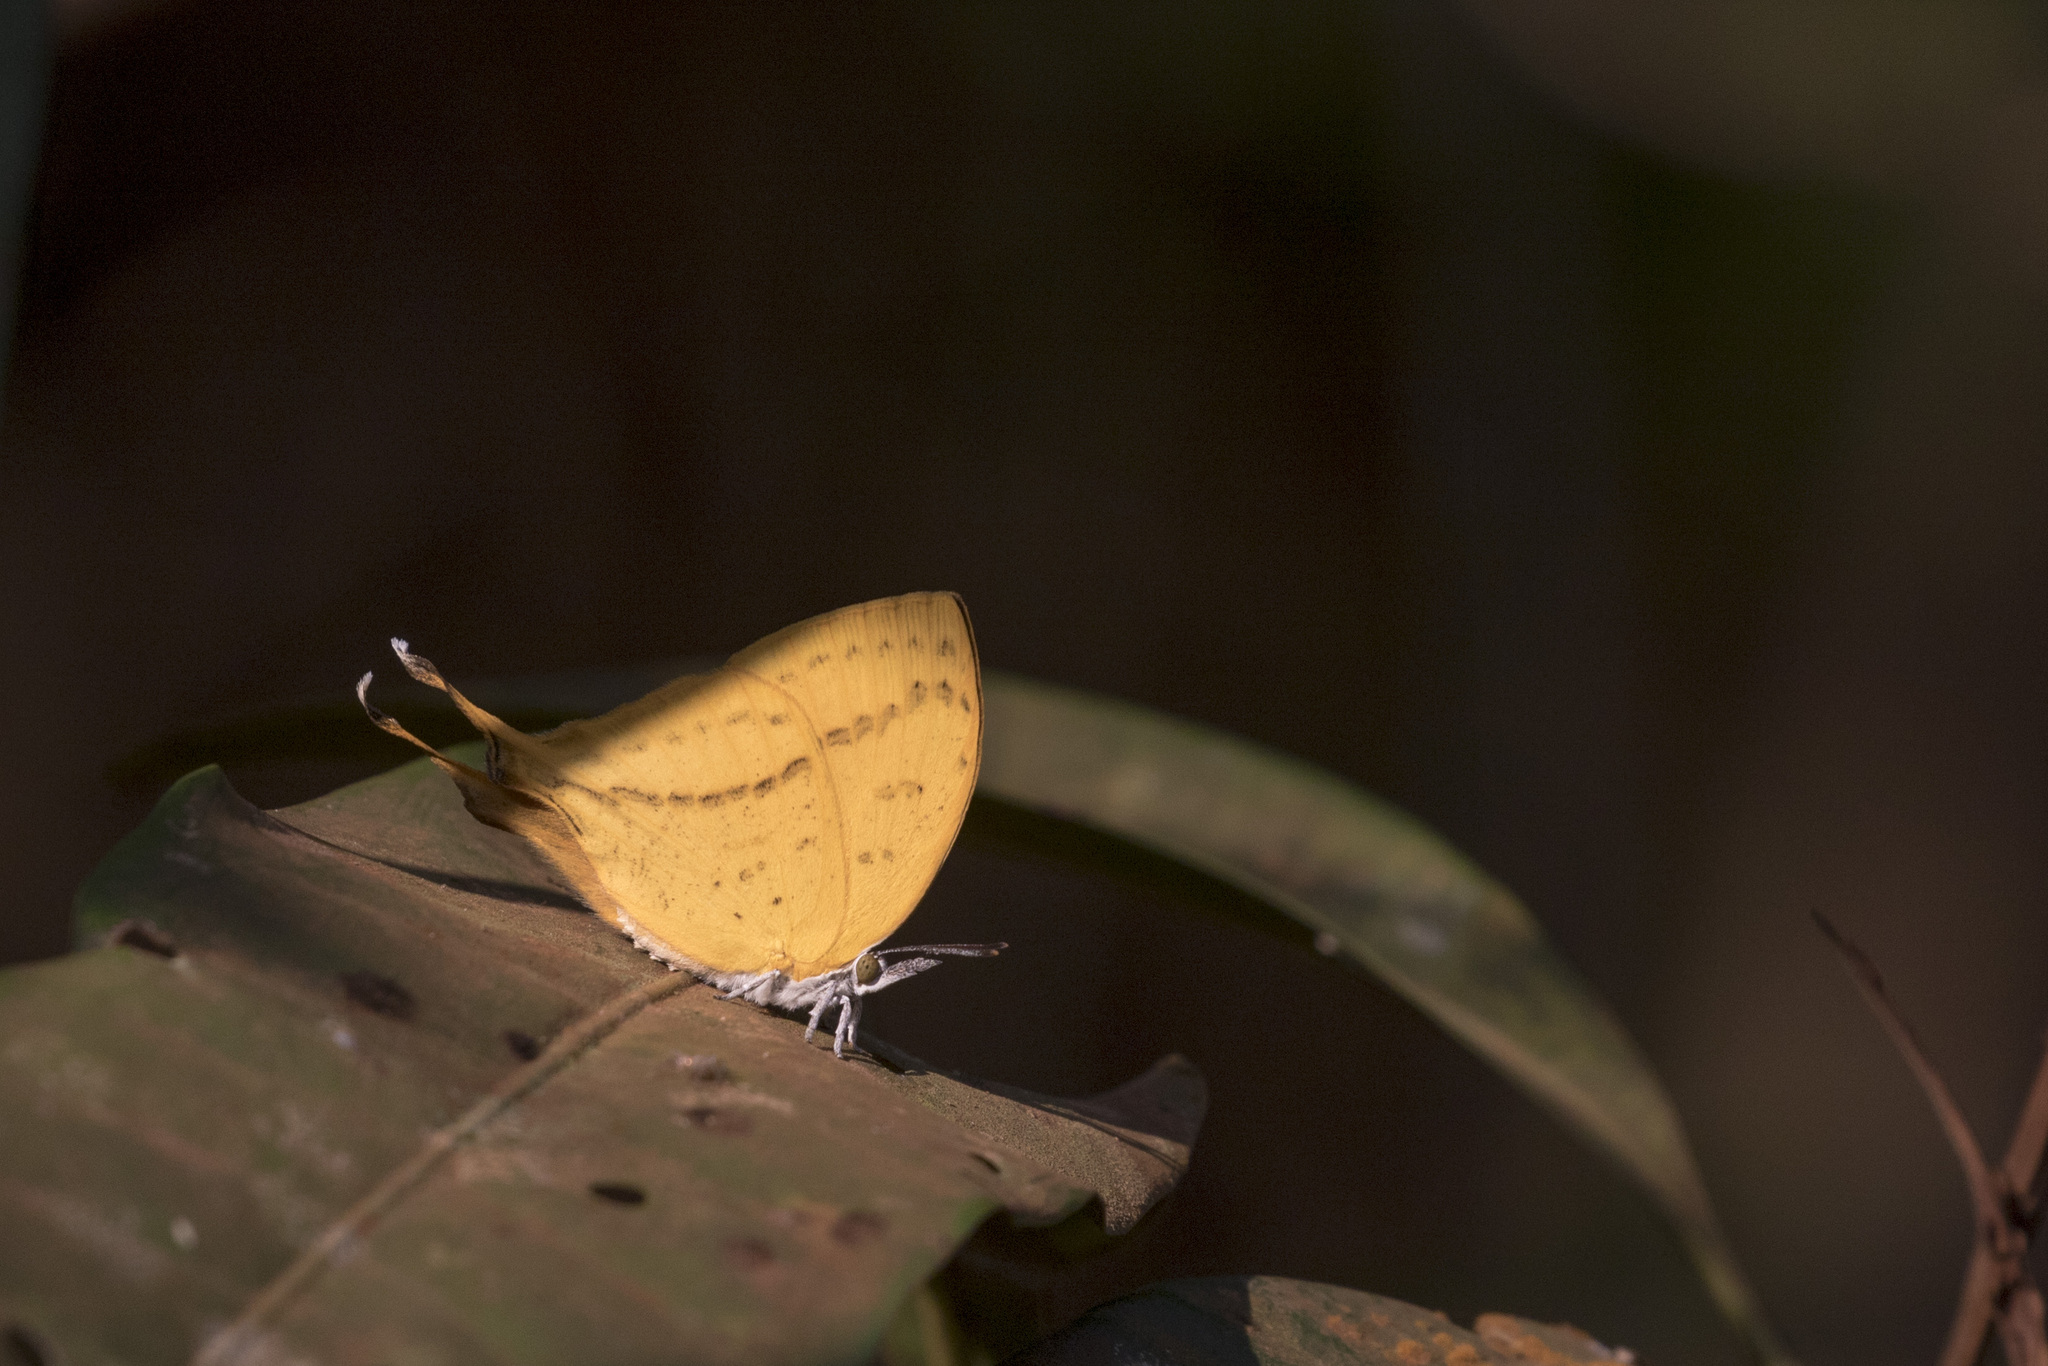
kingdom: Animalia
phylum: Arthropoda
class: Insecta
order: Lepidoptera
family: Lycaenidae
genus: Loxura
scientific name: Loxura atymnus
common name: Common yamfly
